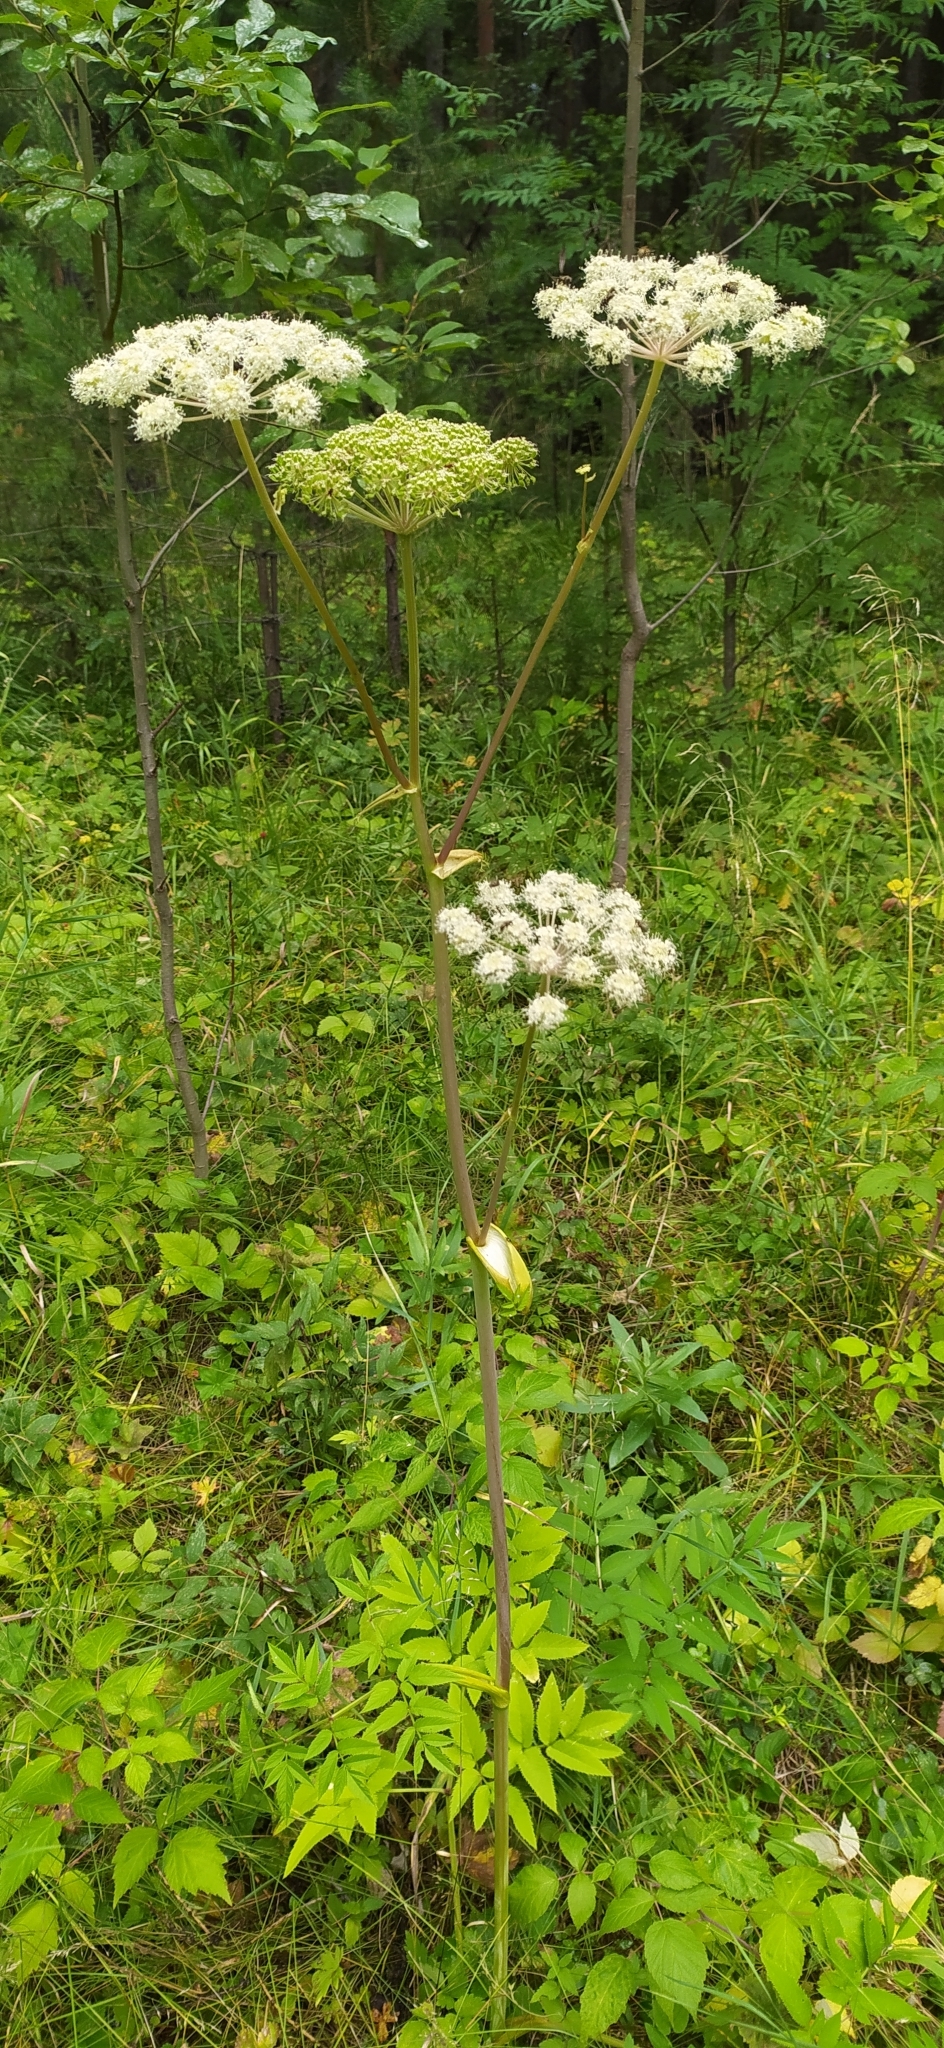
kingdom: Plantae
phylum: Tracheophyta
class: Magnoliopsida
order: Apiales
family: Apiaceae
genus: Angelica
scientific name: Angelica sylvestris
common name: Wild angelica
